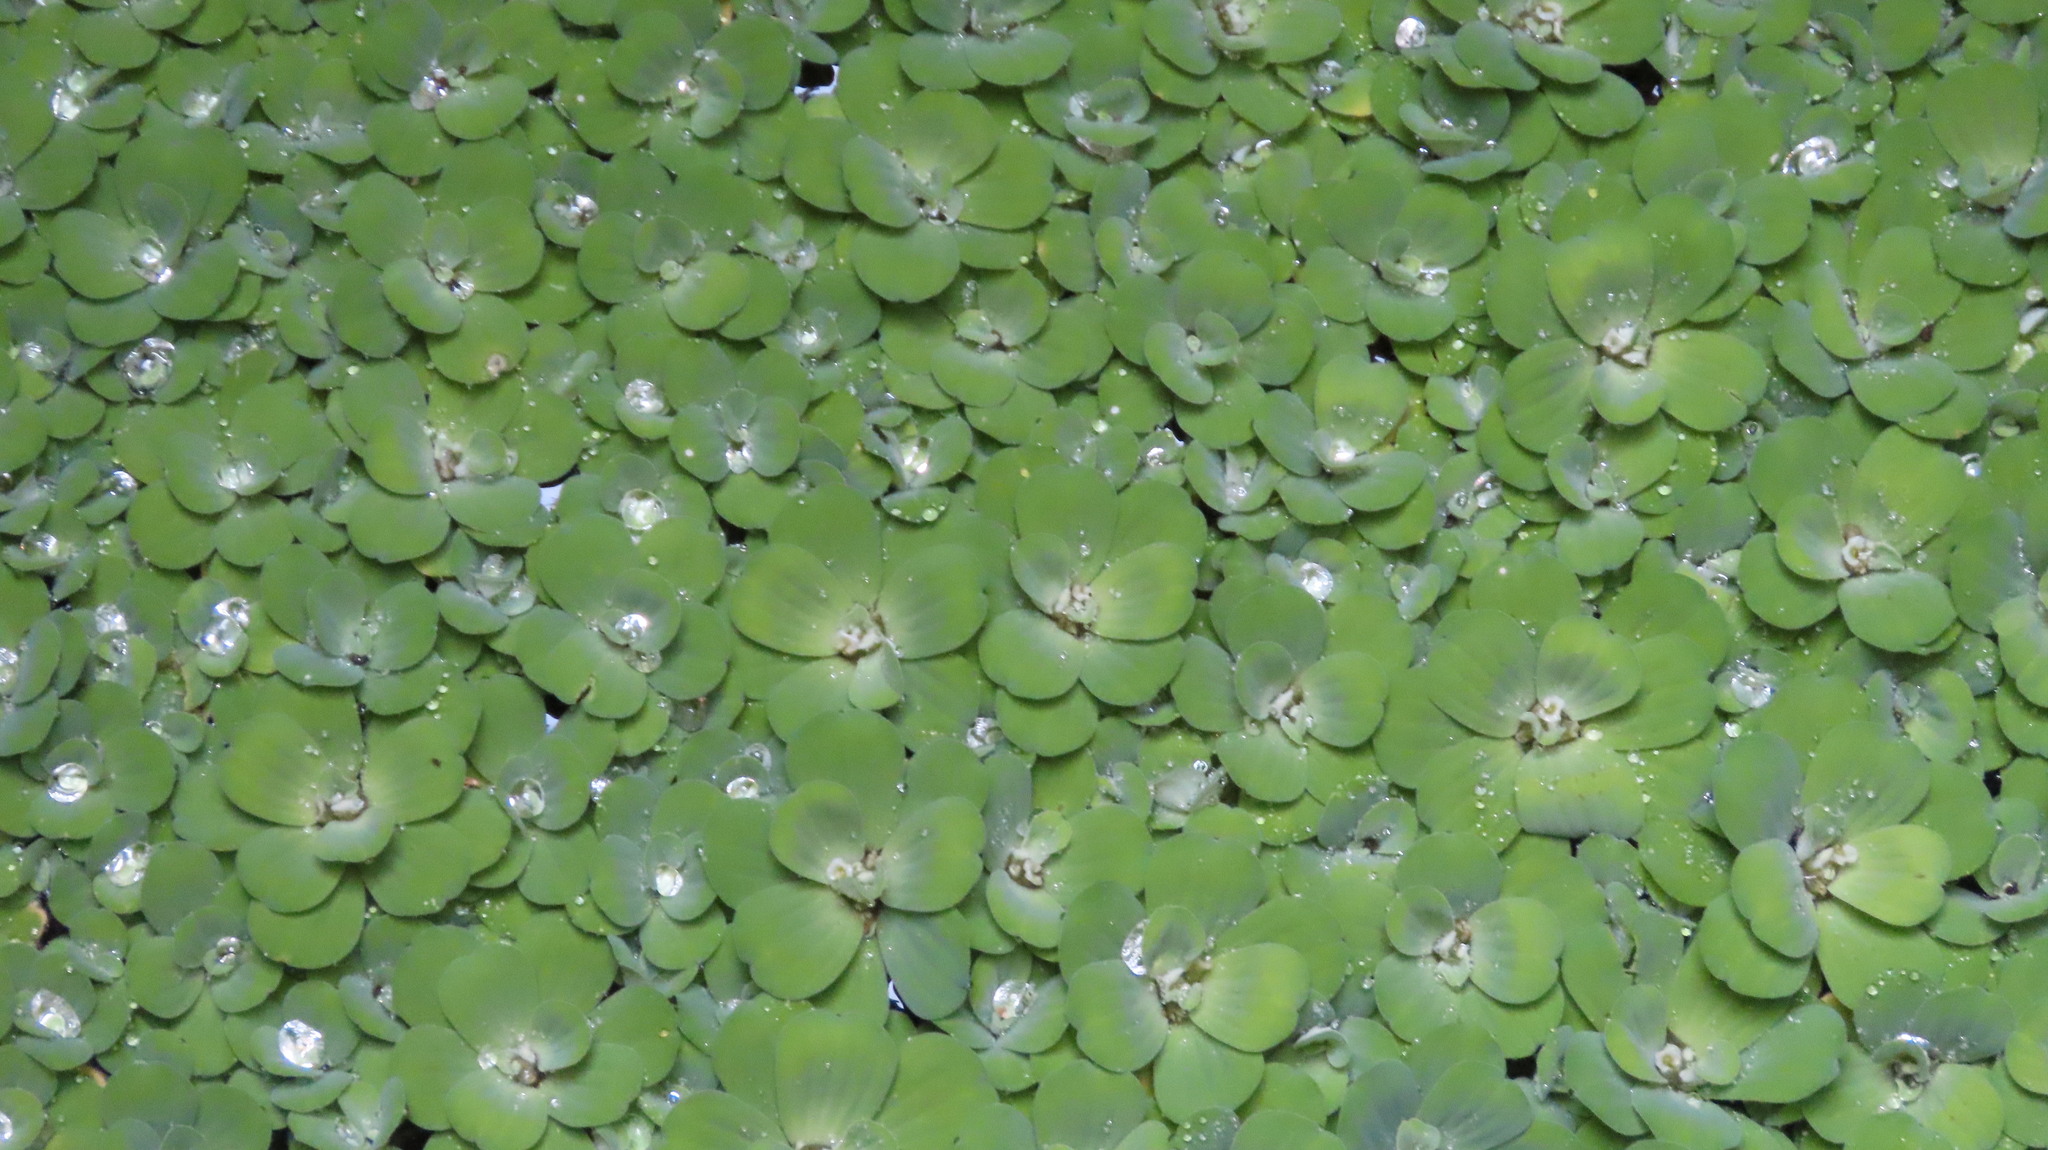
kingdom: Plantae
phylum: Tracheophyta
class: Liliopsida
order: Alismatales
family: Araceae
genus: Pistia
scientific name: Pistia stratiotes
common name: Water lettuce
